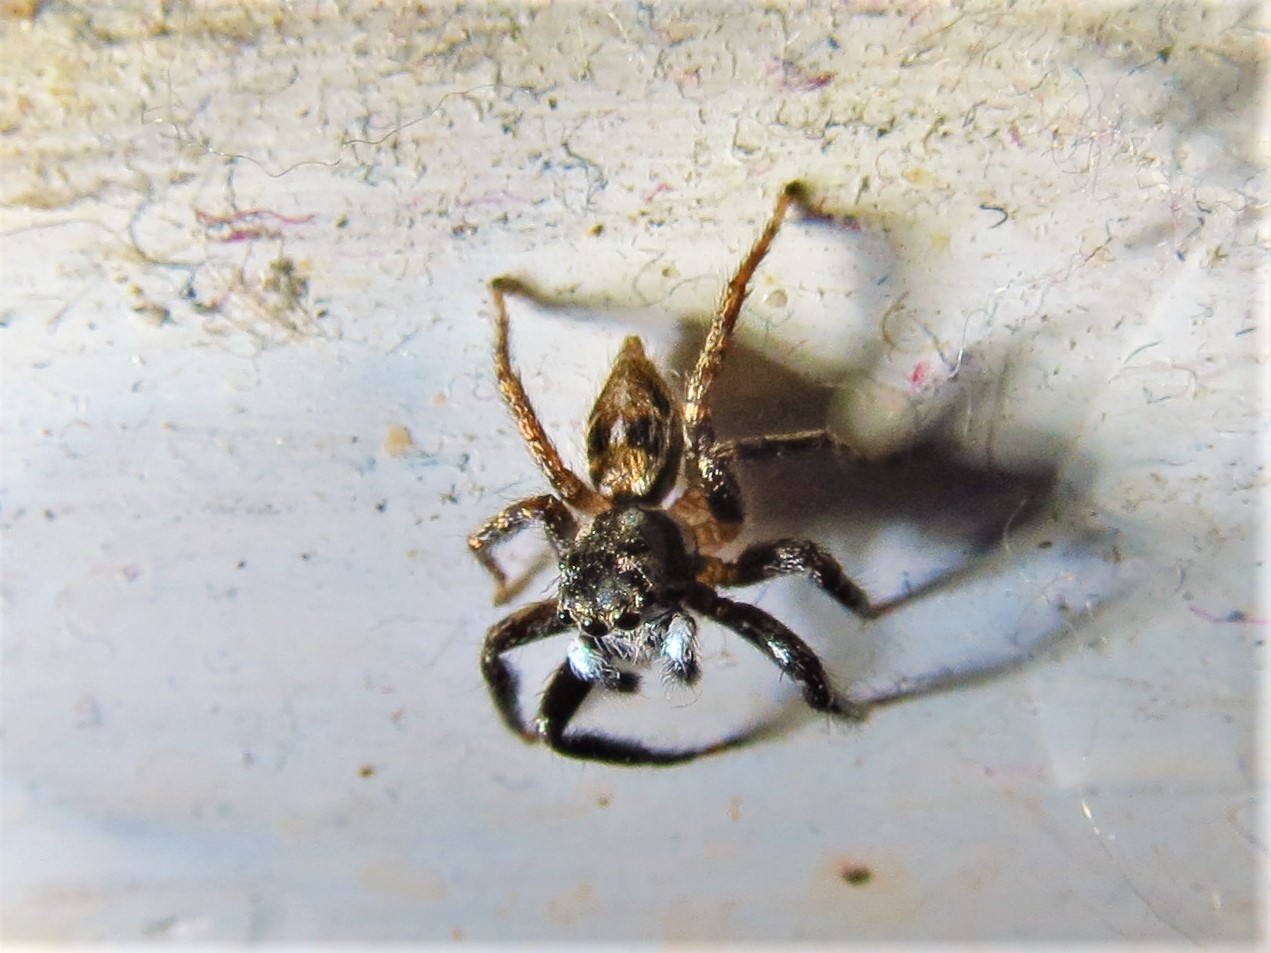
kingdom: Animalia
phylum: Arthropoda
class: Arachnida
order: Araneae
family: Salticidae
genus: Anasaitis
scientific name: Anasaitis canosa
